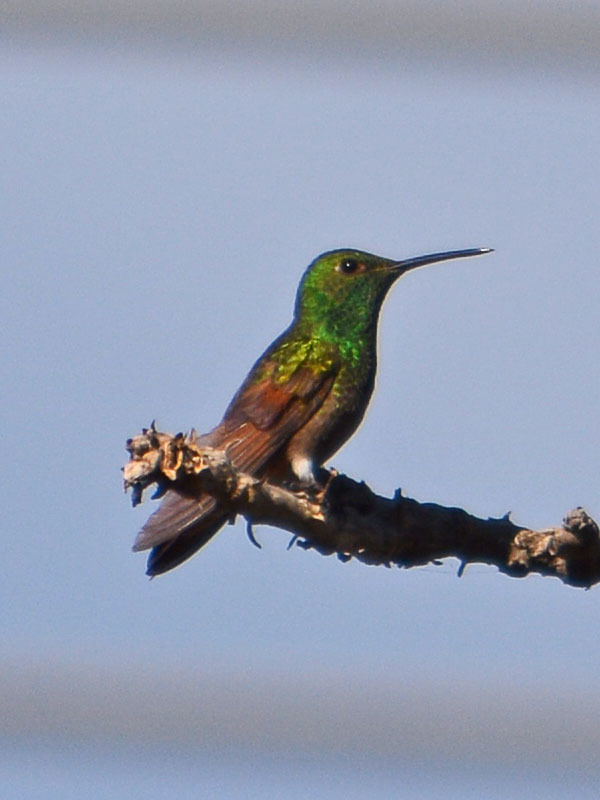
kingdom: Animalia
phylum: Chordata
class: Aves
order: Apodiformes
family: Trochilidae
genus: Saucerottia
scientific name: Saucerottia beryllina
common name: Berylline hummingbird
